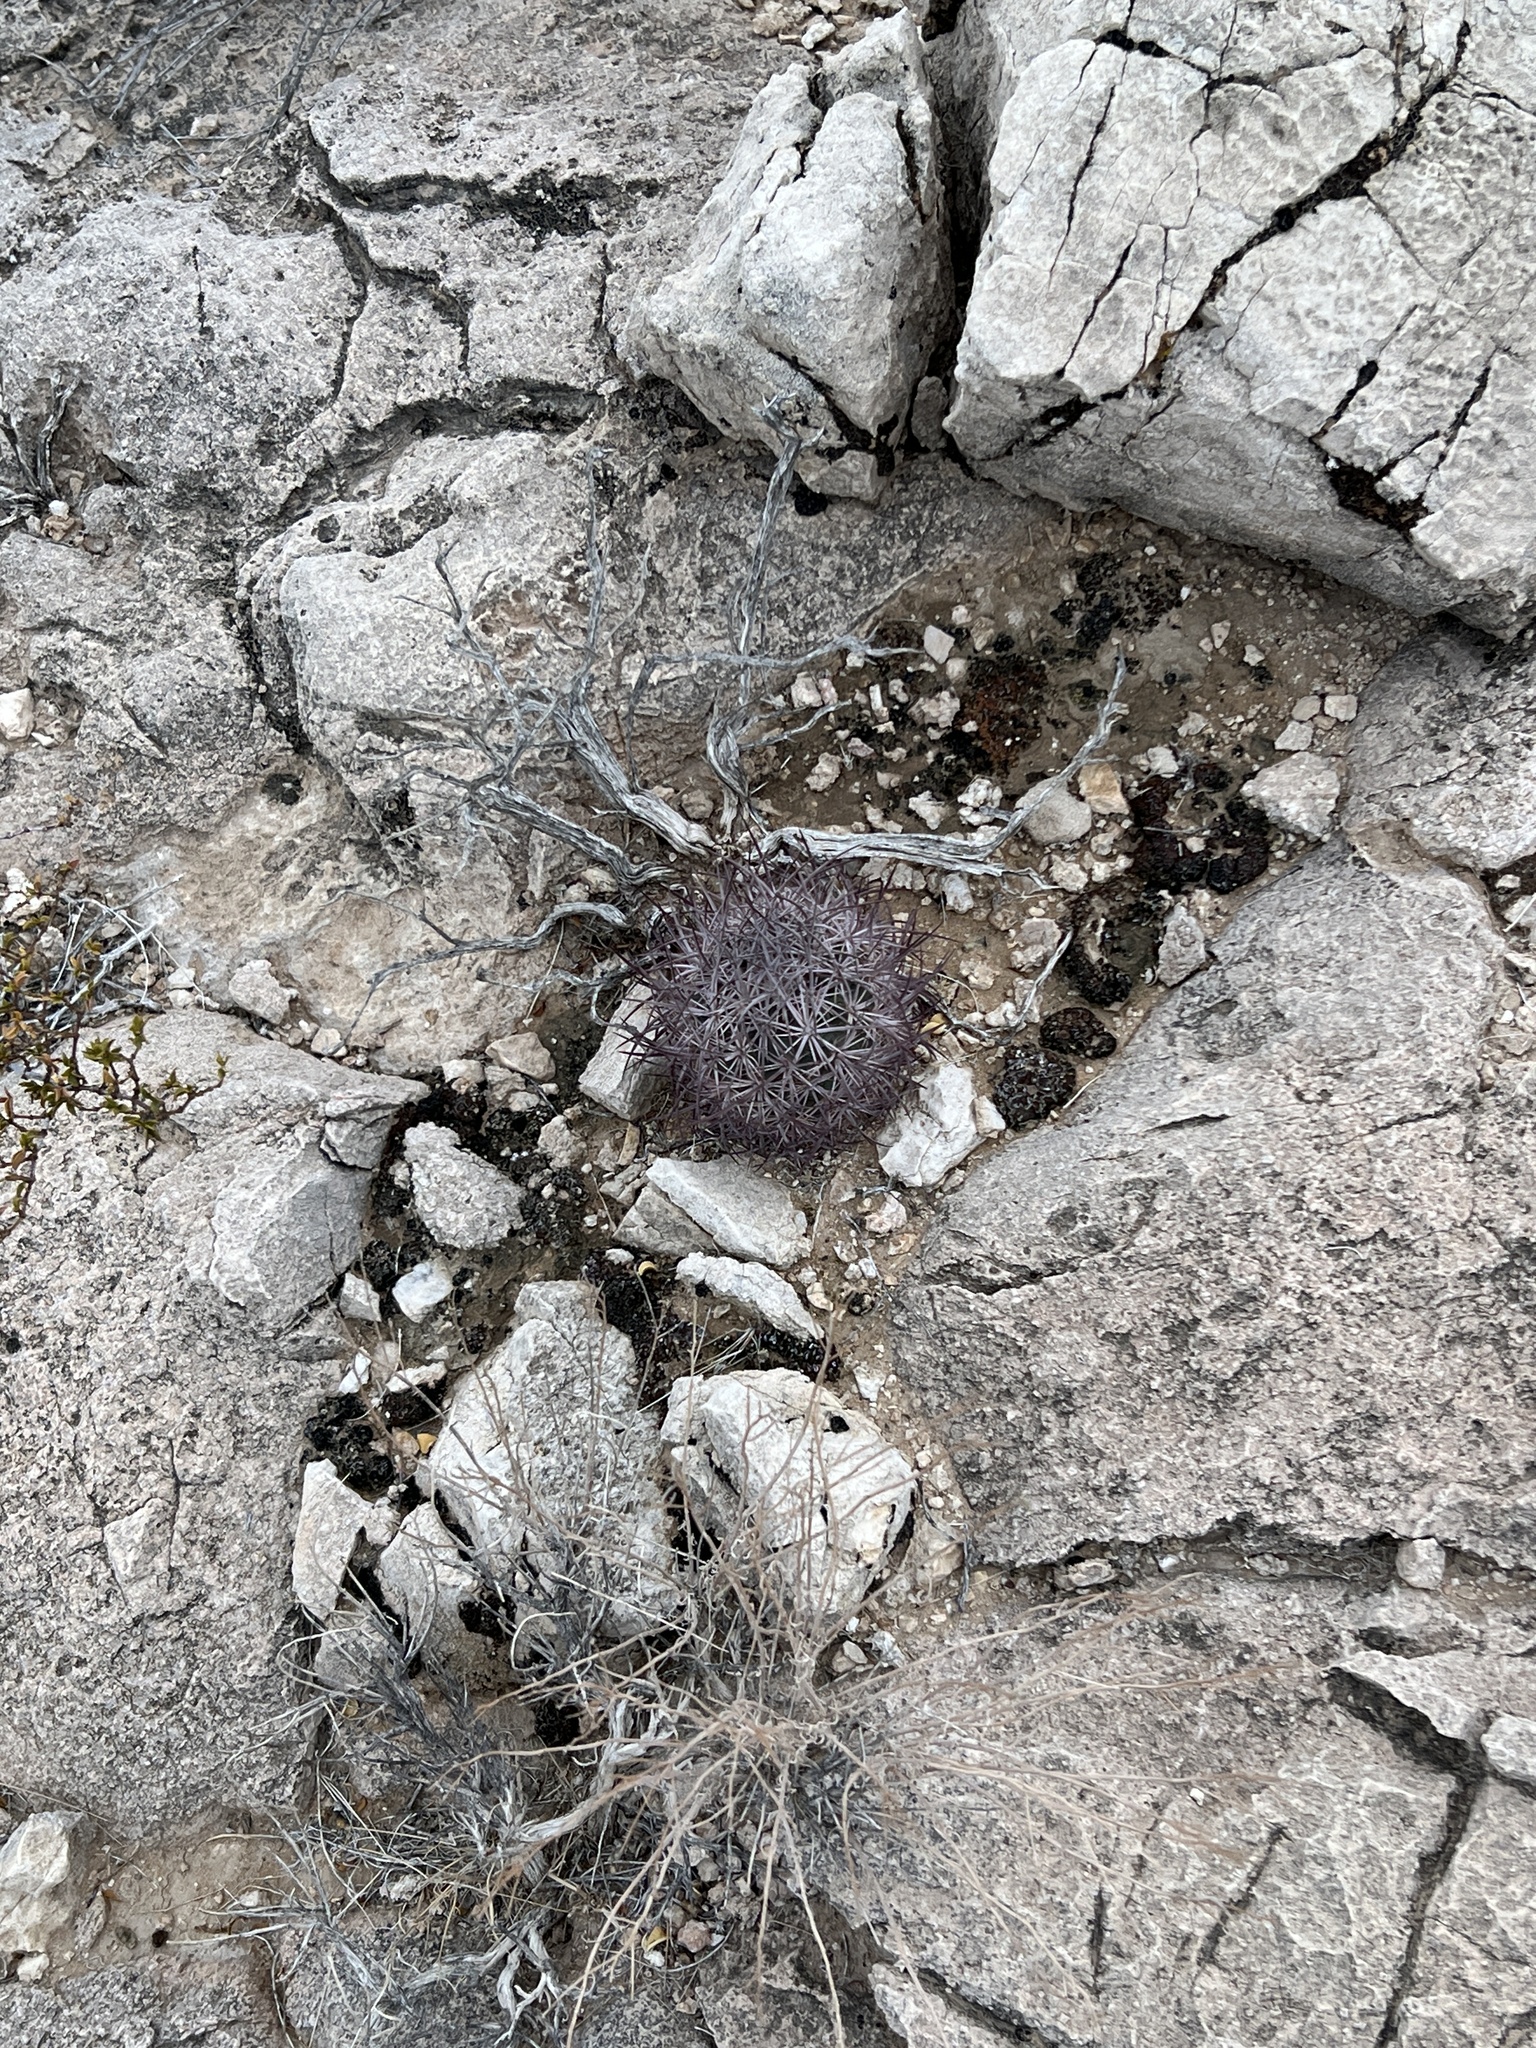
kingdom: Plantae
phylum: Tracheophyta
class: Magnoliopsida
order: Caryophyllales
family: Cactaceae
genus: Sclerocactus
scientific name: Sclerocactus johnsonii
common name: Eight-spine fishhook cactus
